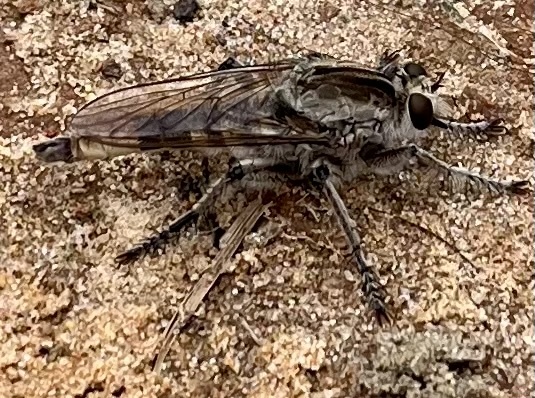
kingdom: Animalia
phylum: Arthropoda
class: Insecta
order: Diptera
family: Asilidae
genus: Triorla
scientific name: Triorla interrupta
